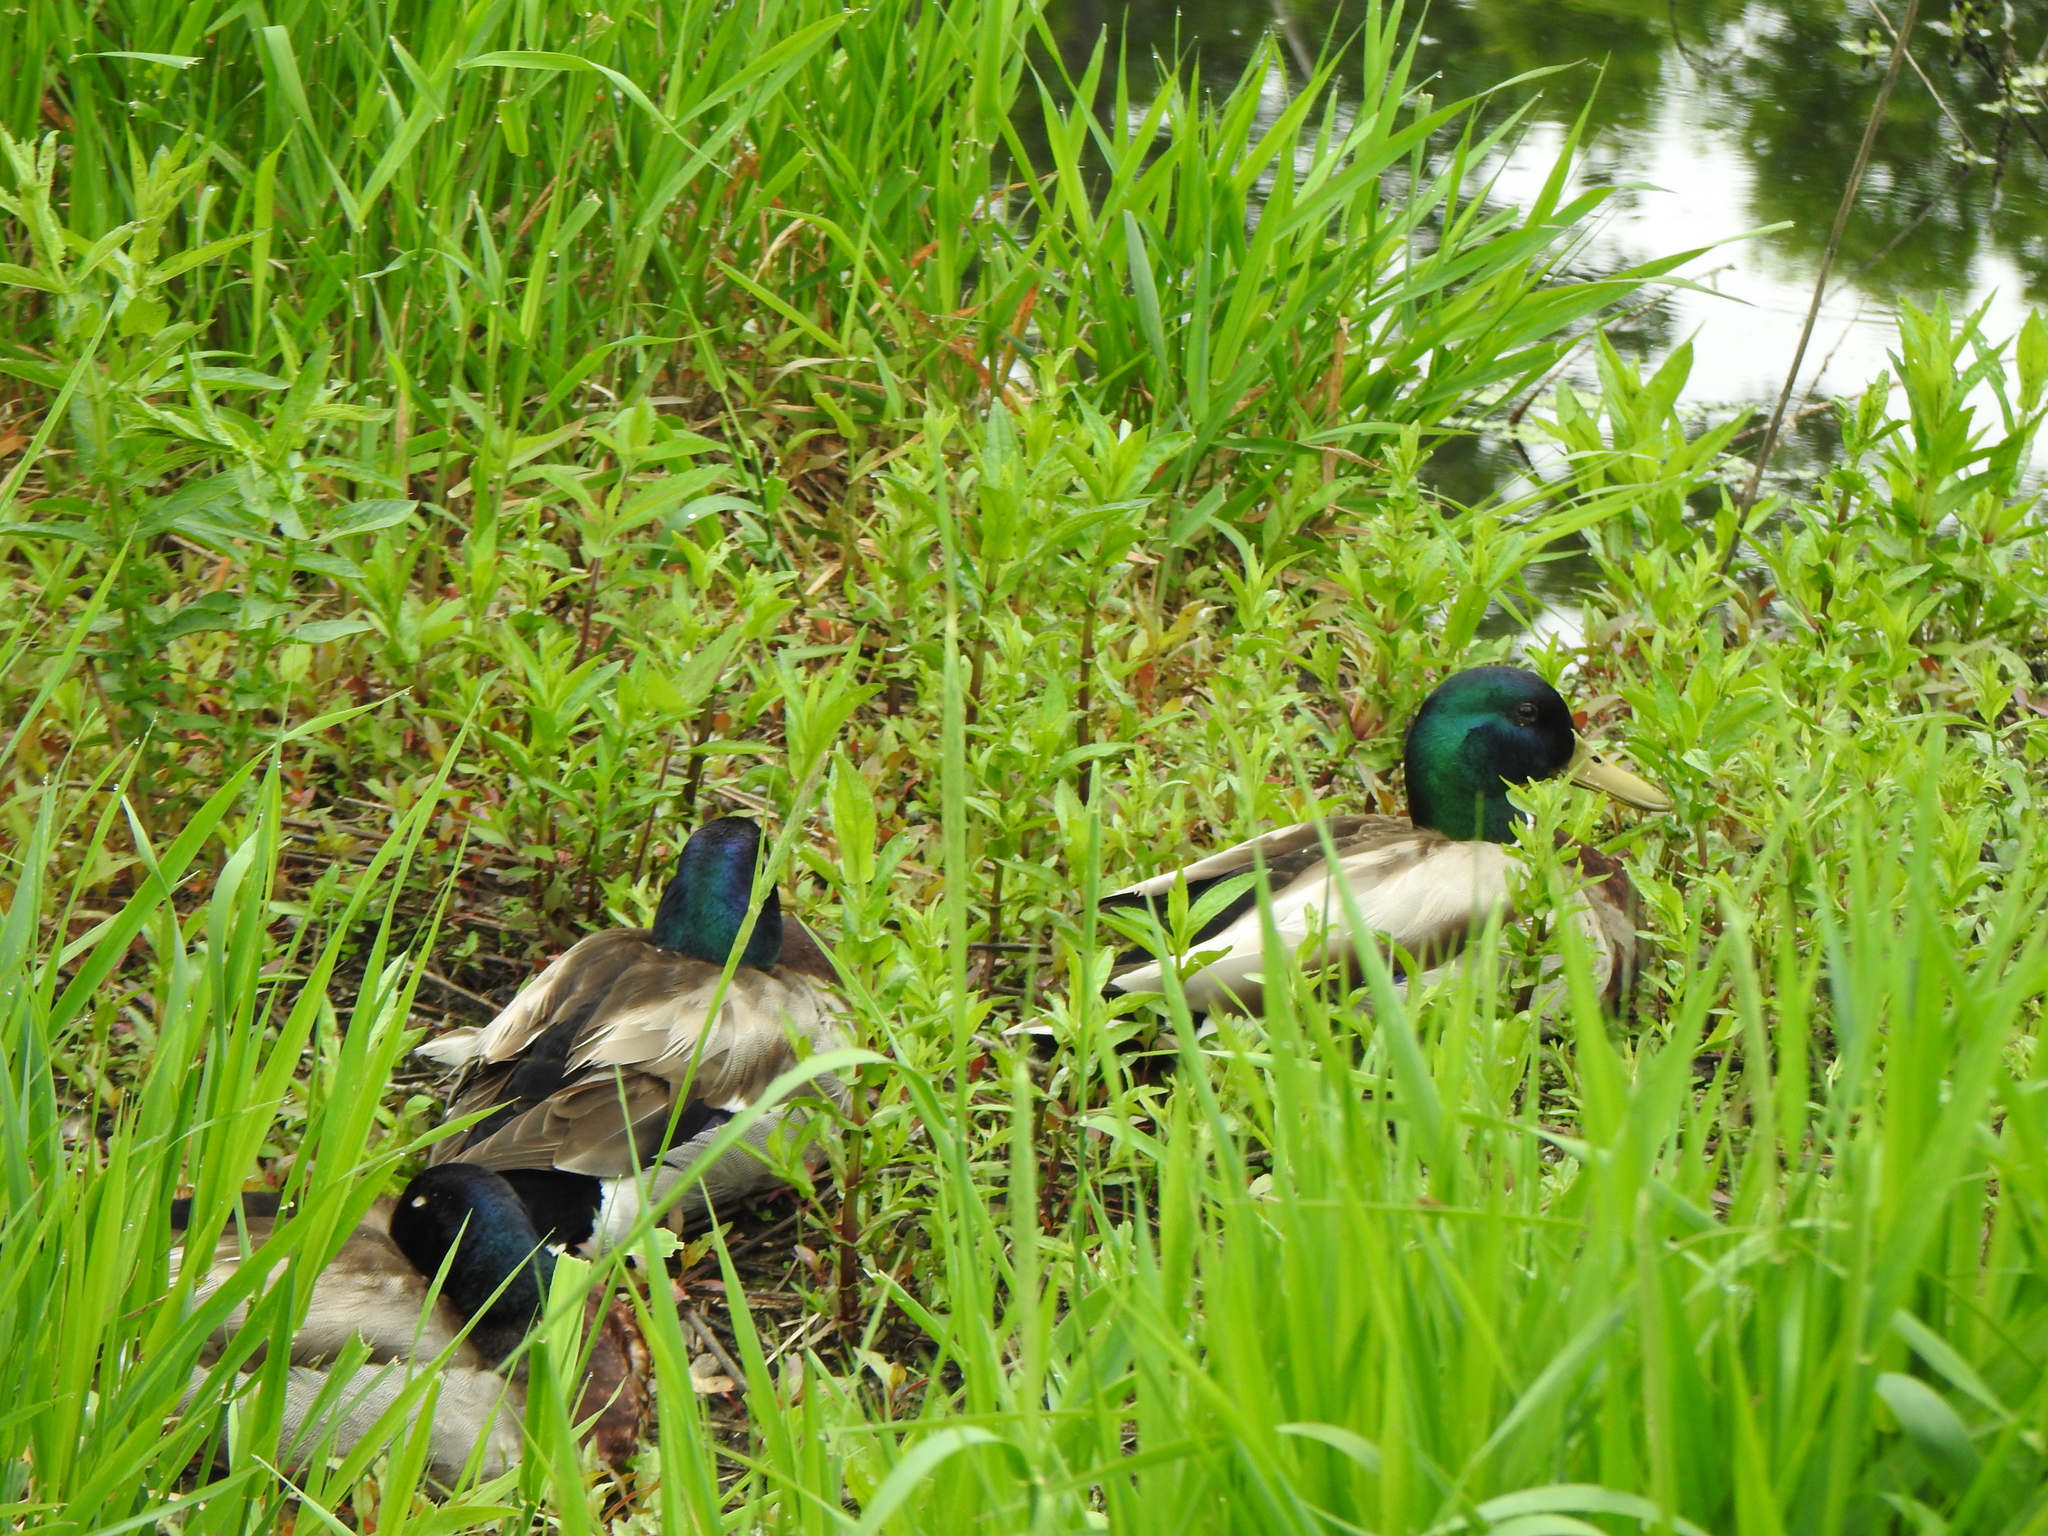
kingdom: Animalia
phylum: Chordata
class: Aves
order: Anseriformes
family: Anatidae
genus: Anas
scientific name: Anas platyrhynchos
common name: Mallard
